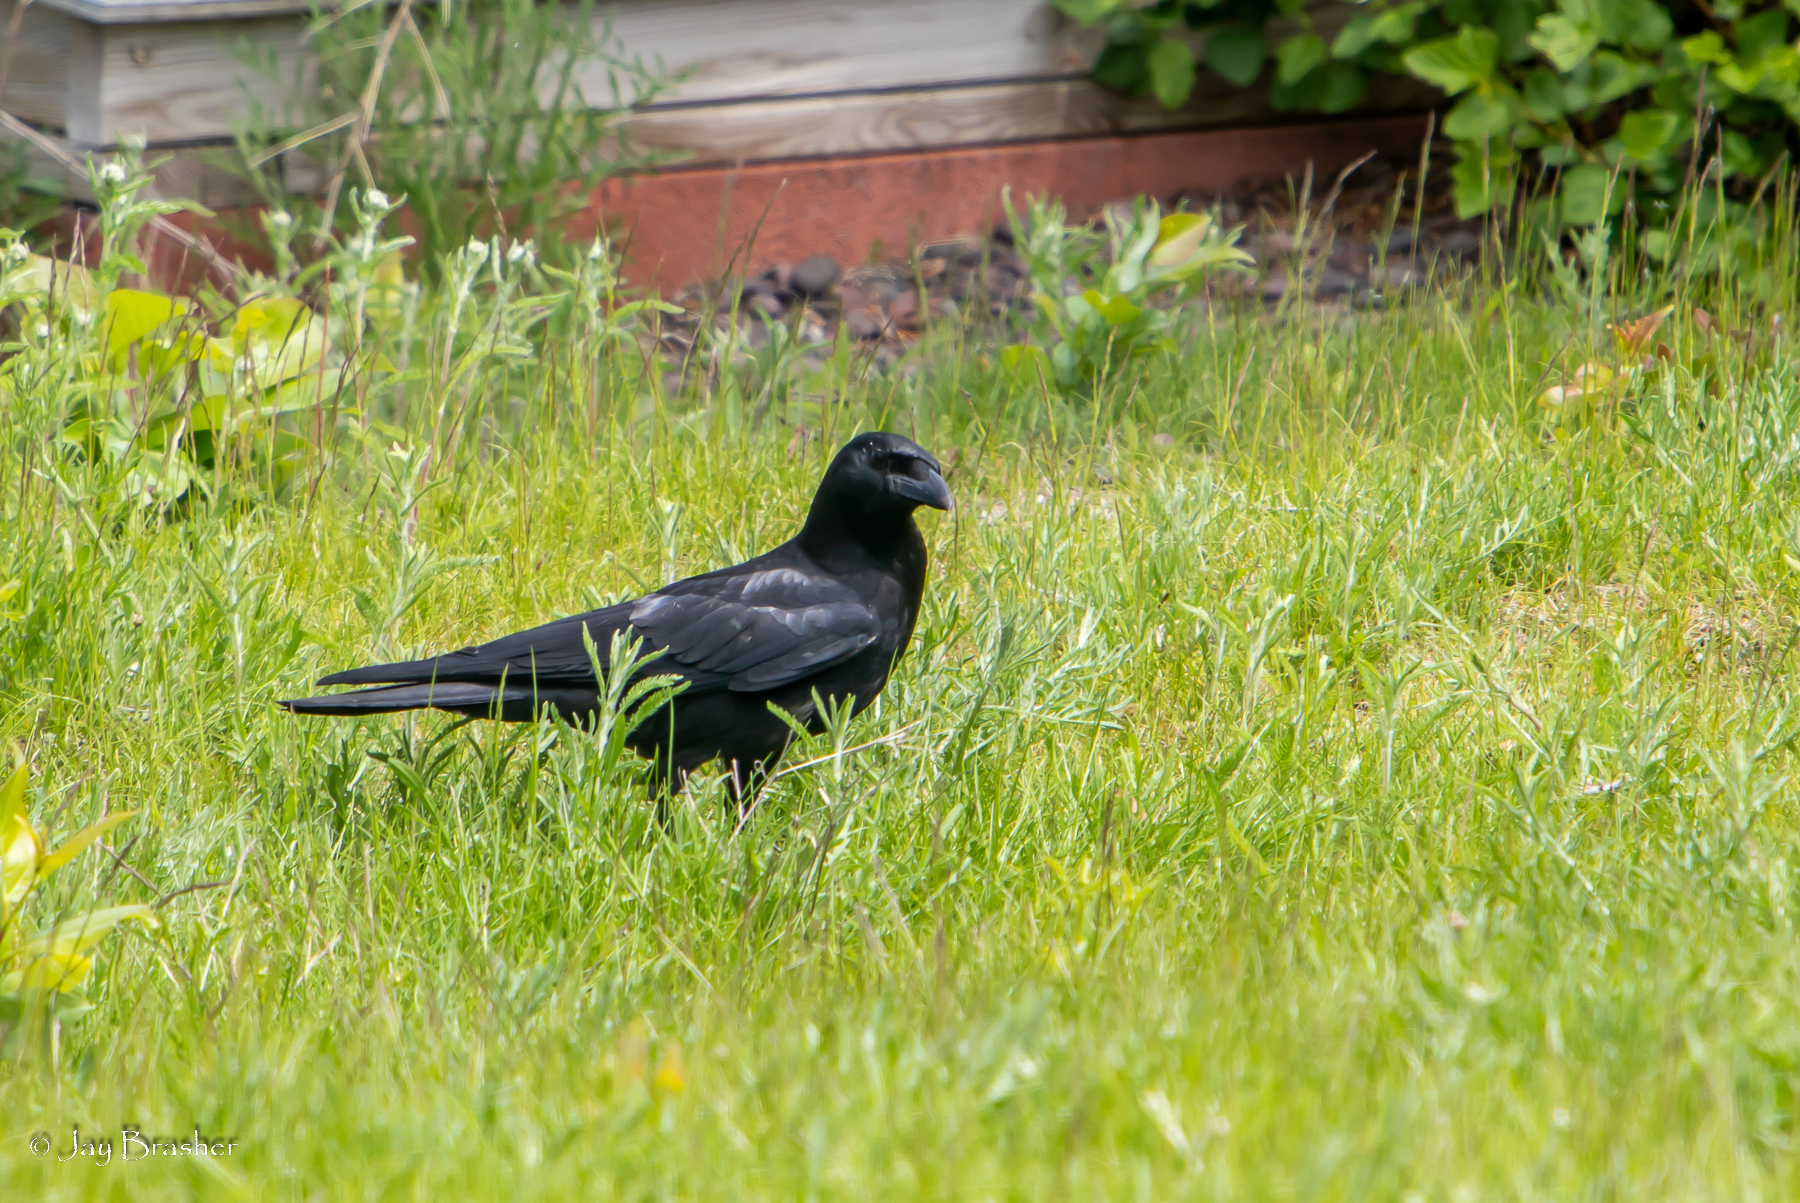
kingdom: Animalia
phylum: Chordata
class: Aves
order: Passeriformes
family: Corvidae
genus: Corvus
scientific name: Corvus corax
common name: Common raven
